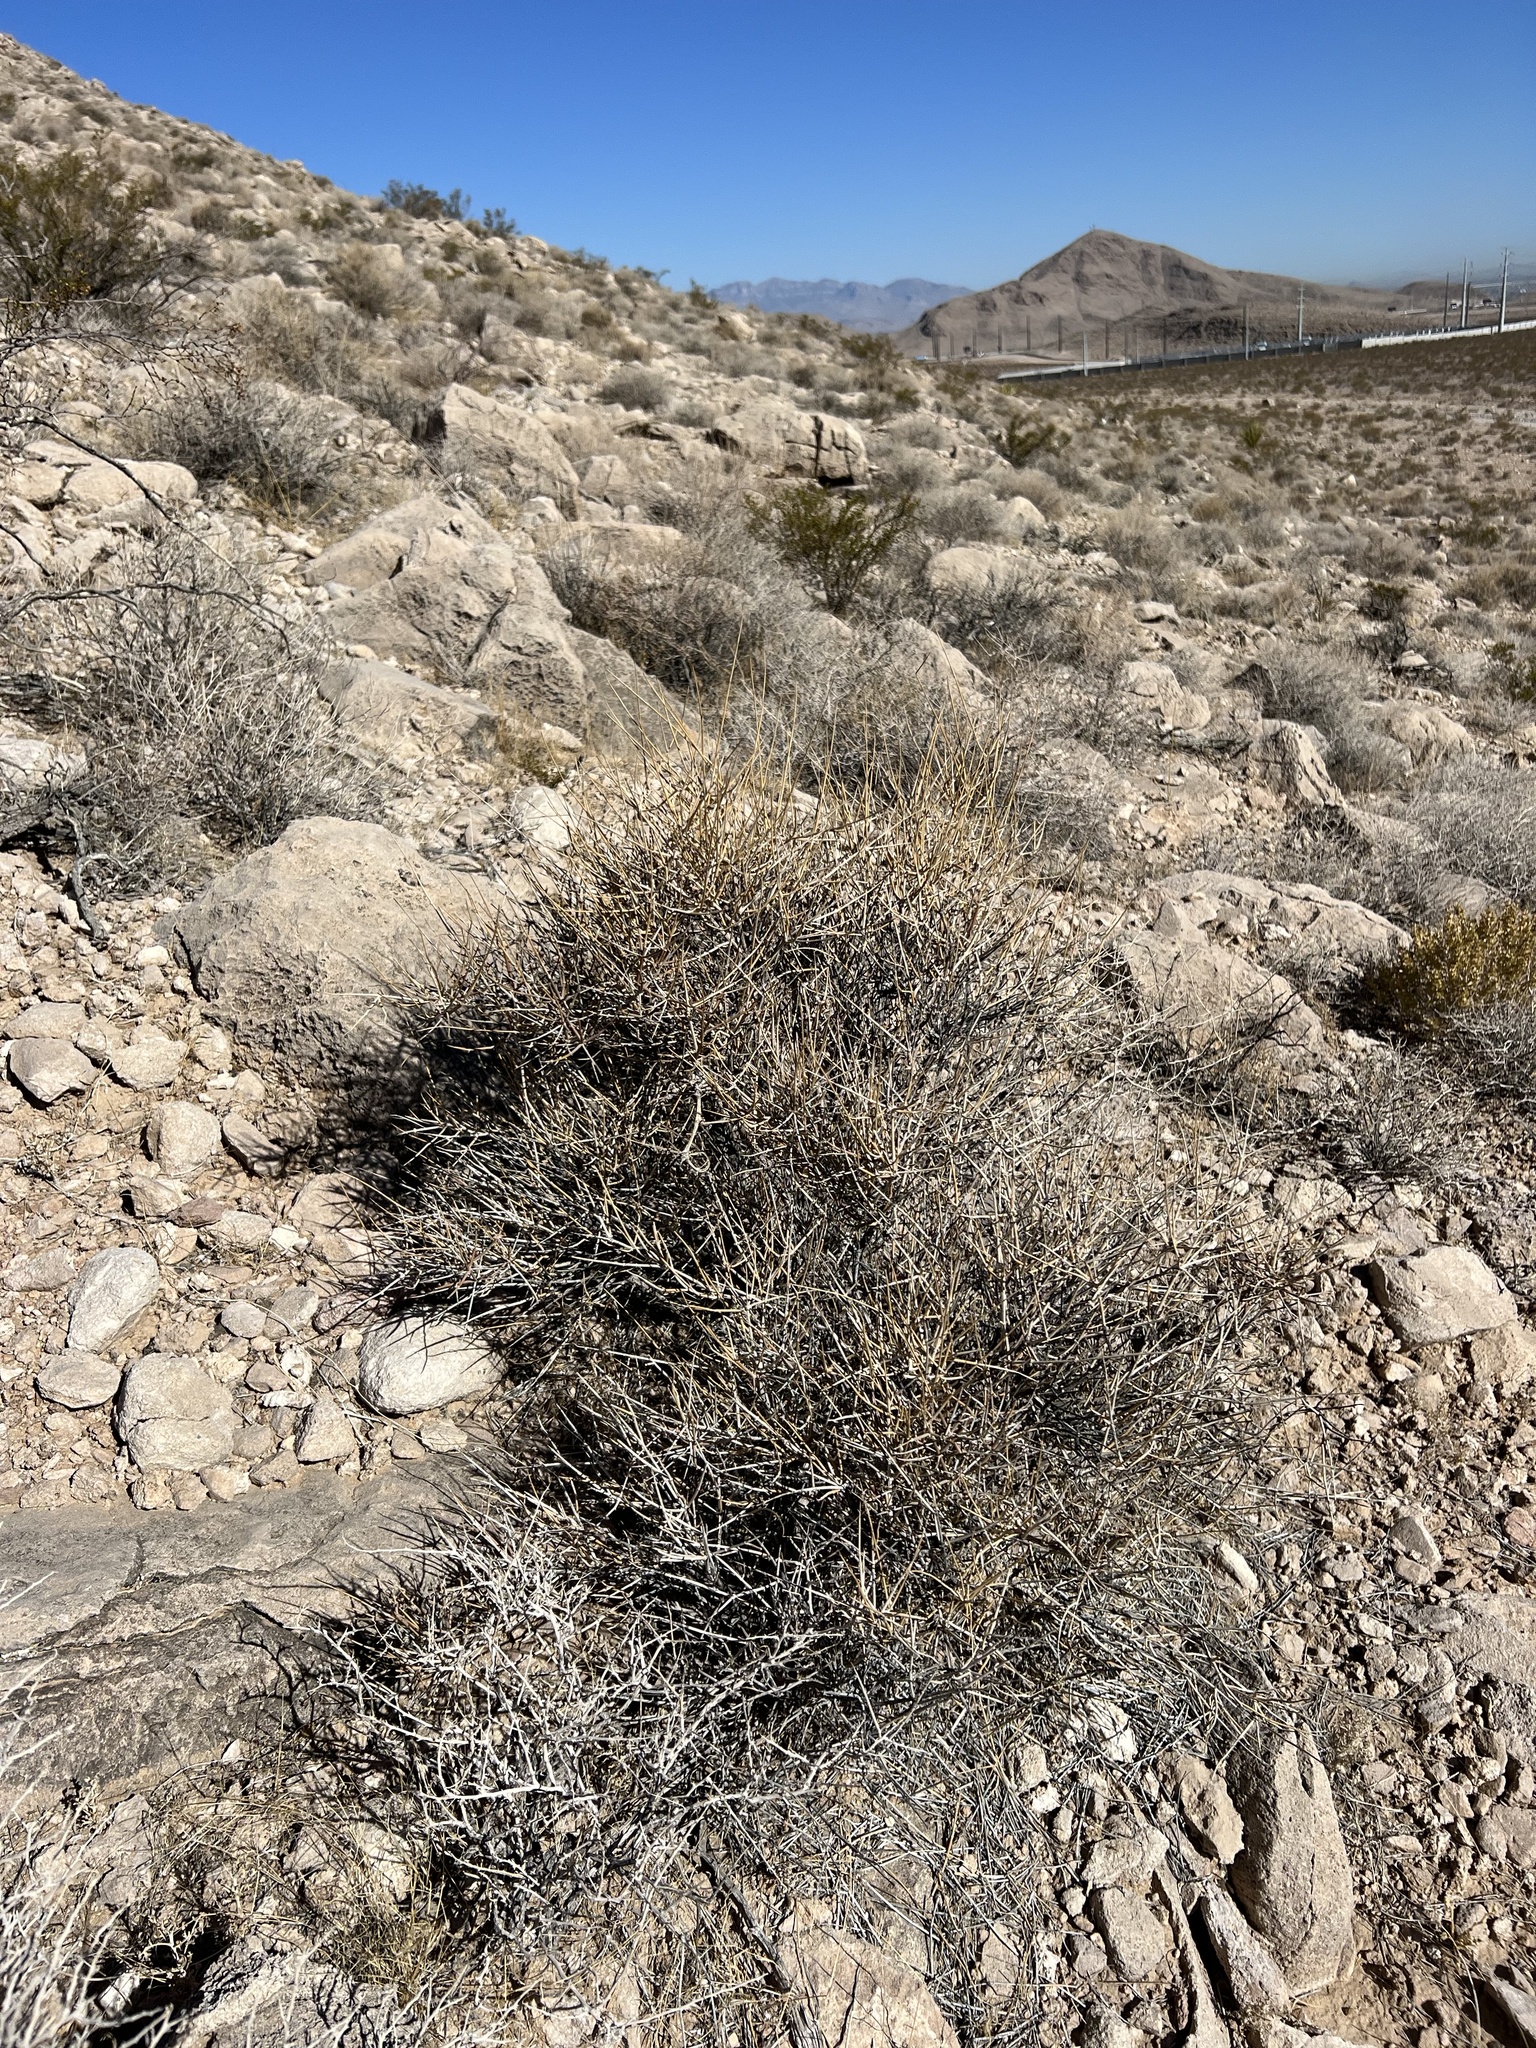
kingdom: Plantae
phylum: Tracheophyta
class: Gnetopsida
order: Ephedrales
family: Ephedraceae
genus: Ephedra
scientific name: Ephedra nevadensis
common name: Gray ephedra
